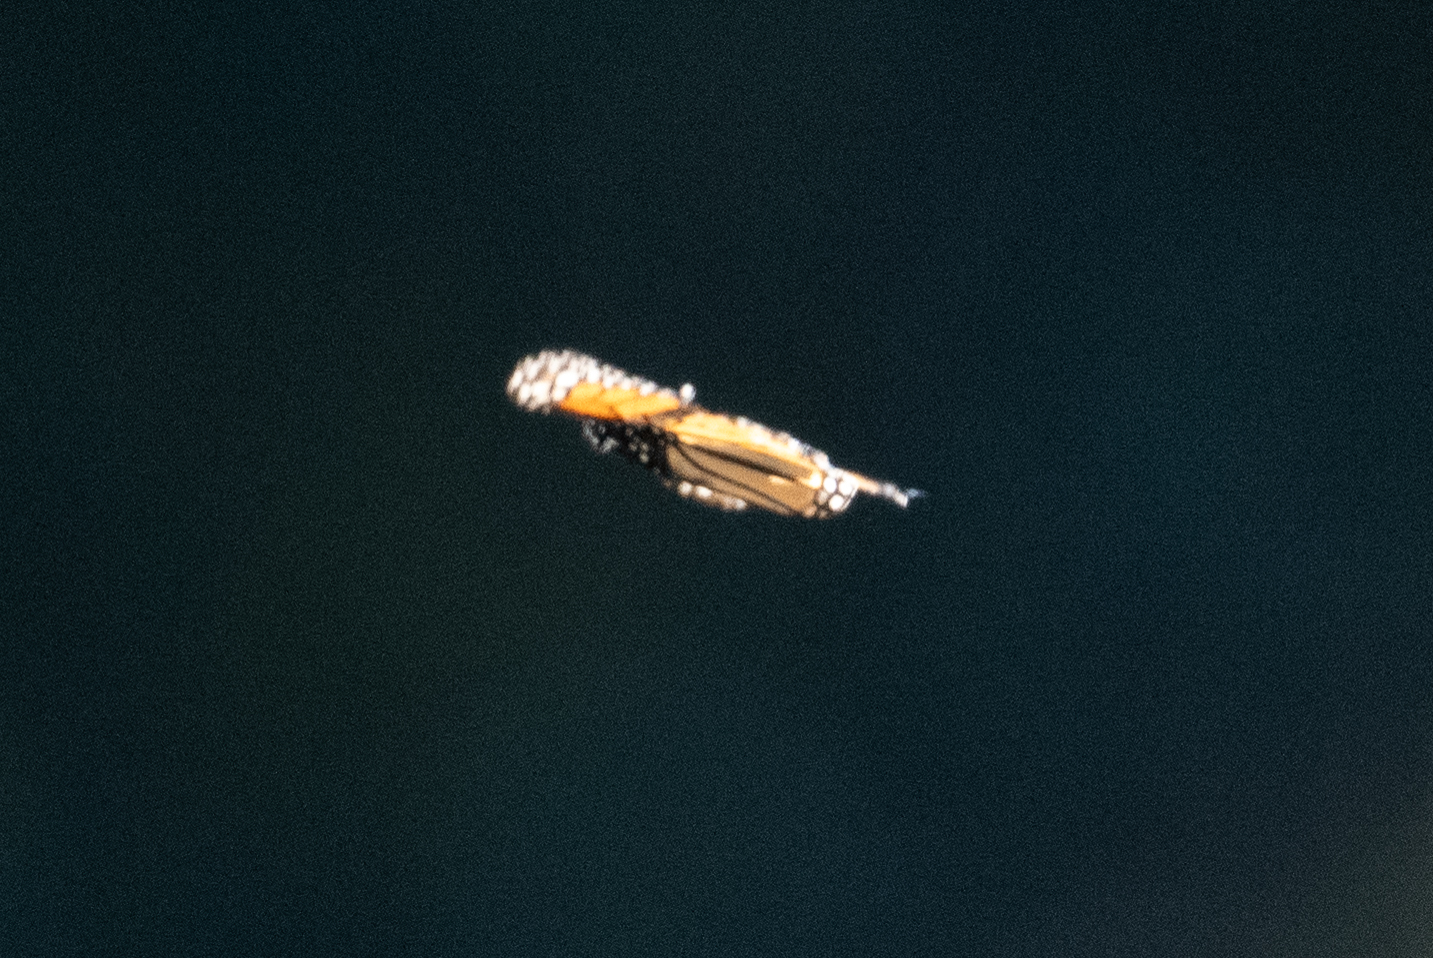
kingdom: Animalia
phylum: Arthropoda
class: Insecta
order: Lepidoptera
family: Nymphalidae
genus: Danaus
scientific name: Danaus plexippus
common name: Monarch
